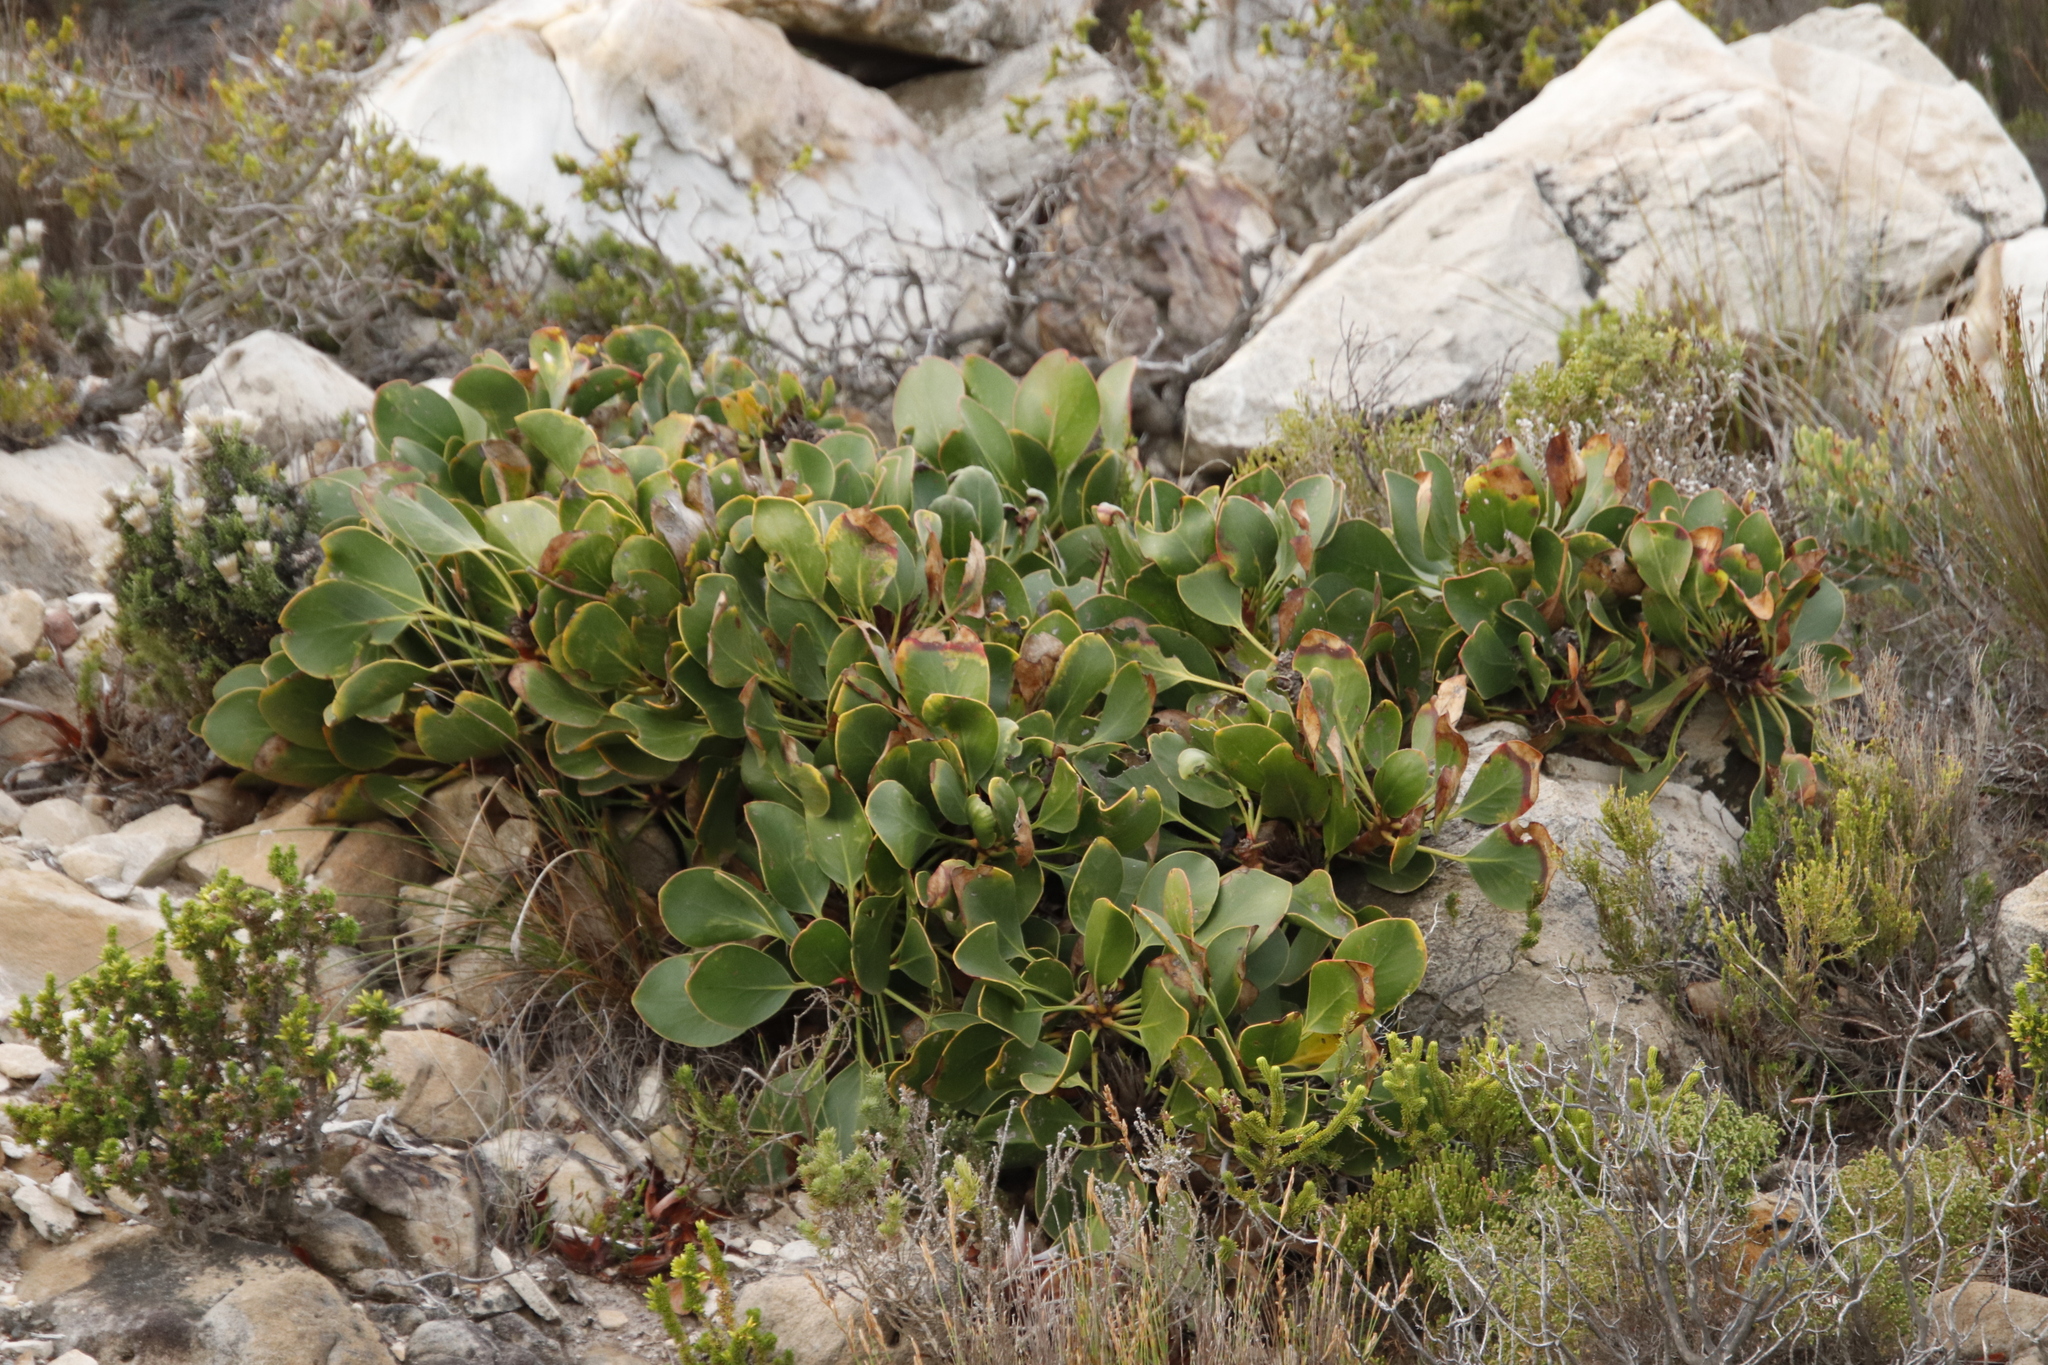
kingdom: Plantae
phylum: Tracheophyta
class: Magnoliopsida
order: Proteales
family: Proteaceae
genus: Protea
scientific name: Protea cynaroides
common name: King protea
